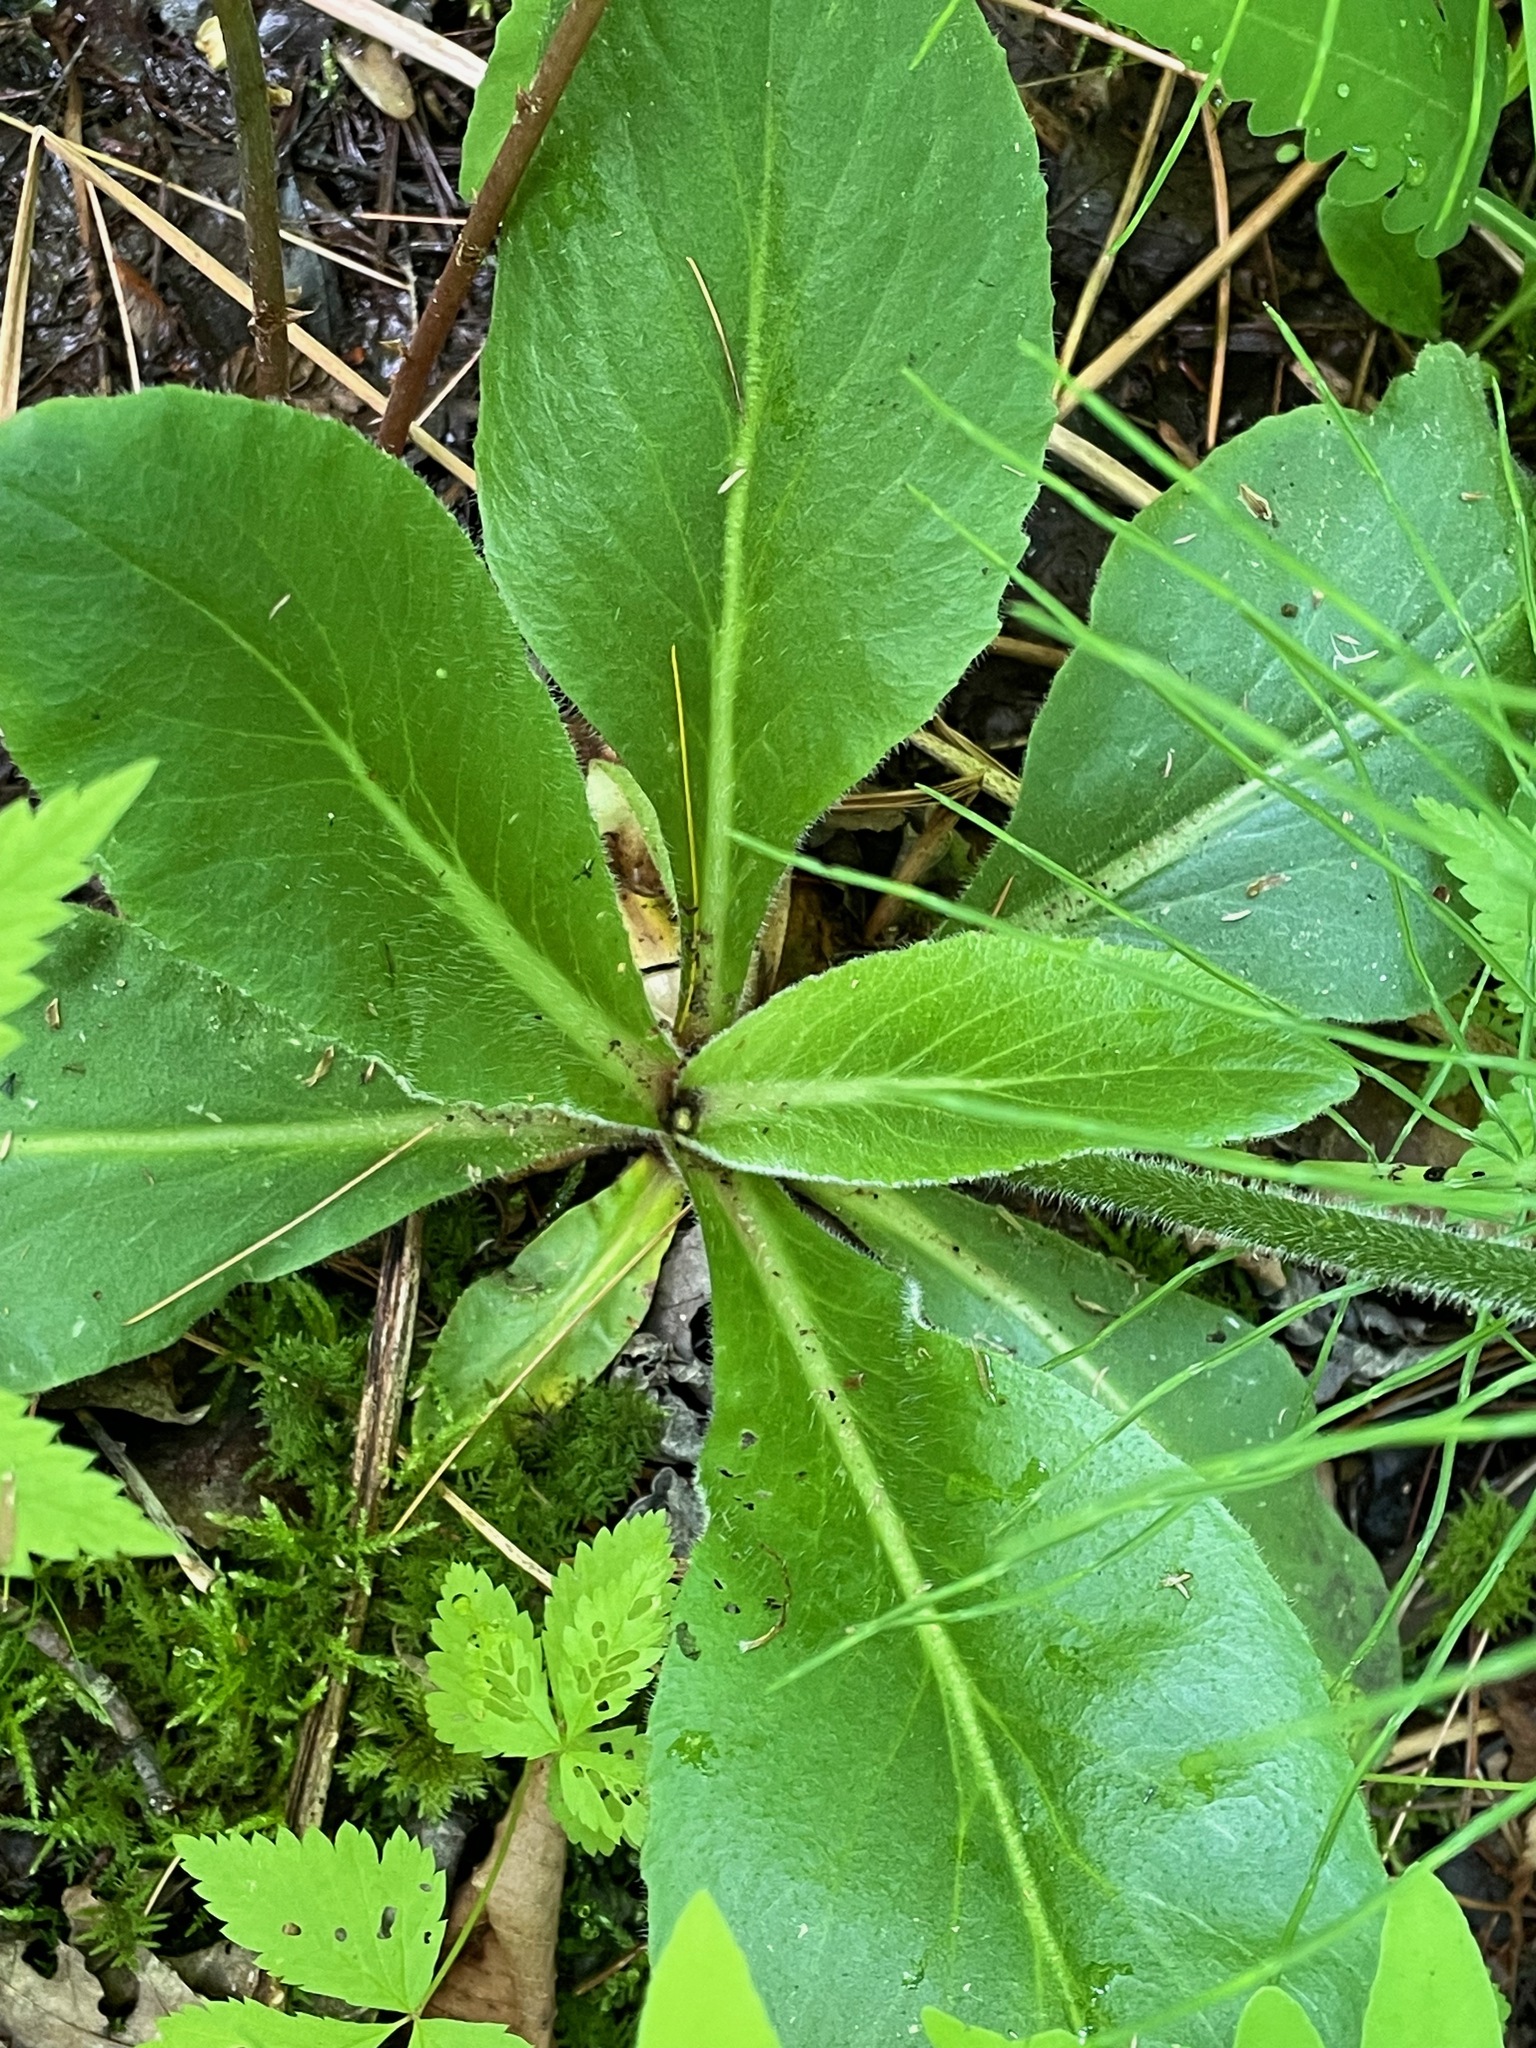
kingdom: Plantae
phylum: Tracheophyta
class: Magnoliopsida
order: Saxifragales
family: Saxifragaceae
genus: Micranthes
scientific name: Micranthes pensylvanica
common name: Marsh saxifrage
